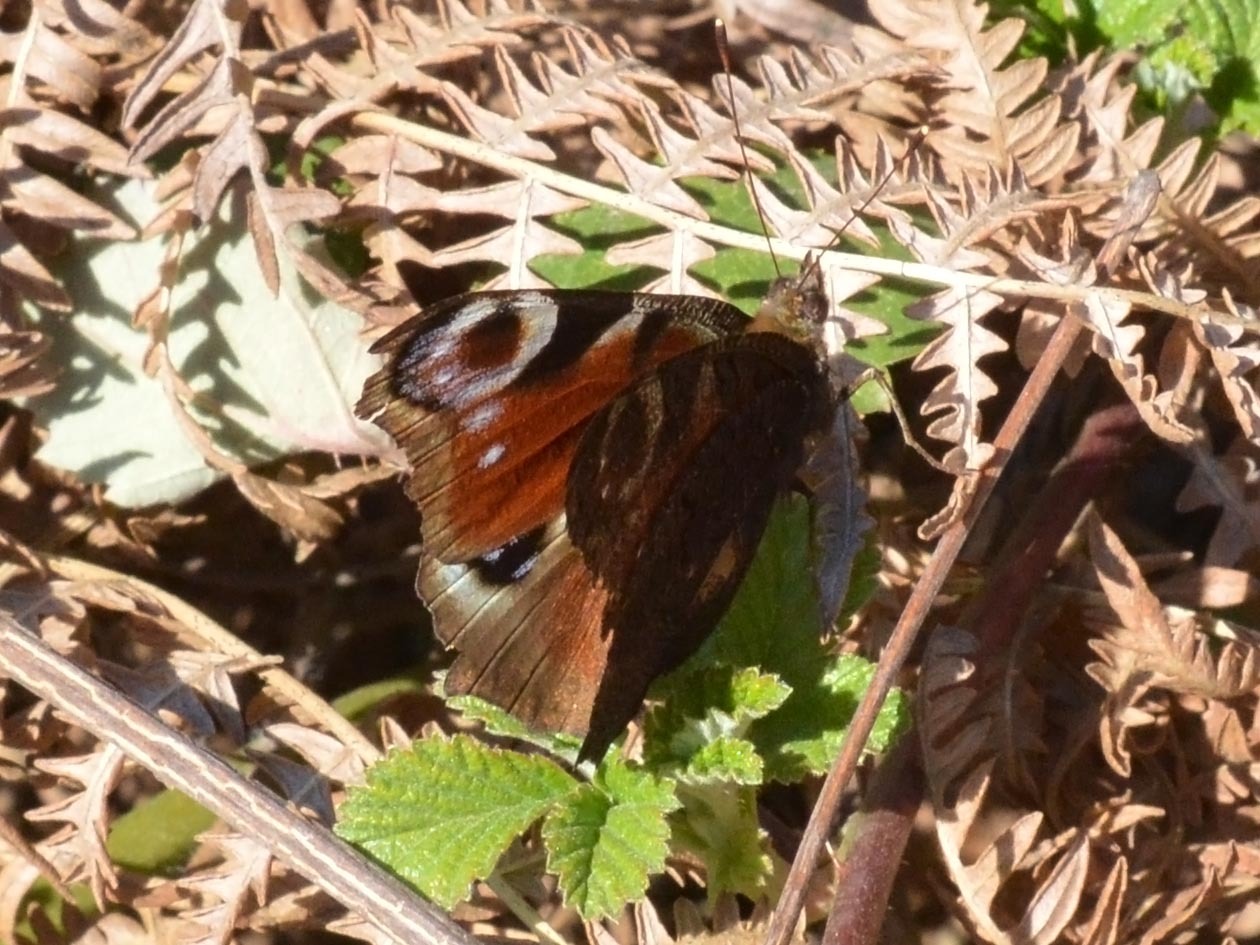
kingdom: Animalia
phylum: Arthropoda
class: Insecta
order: Lepidoptera
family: Nymphalidae
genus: Aglais
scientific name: Aglais io
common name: Peacock
